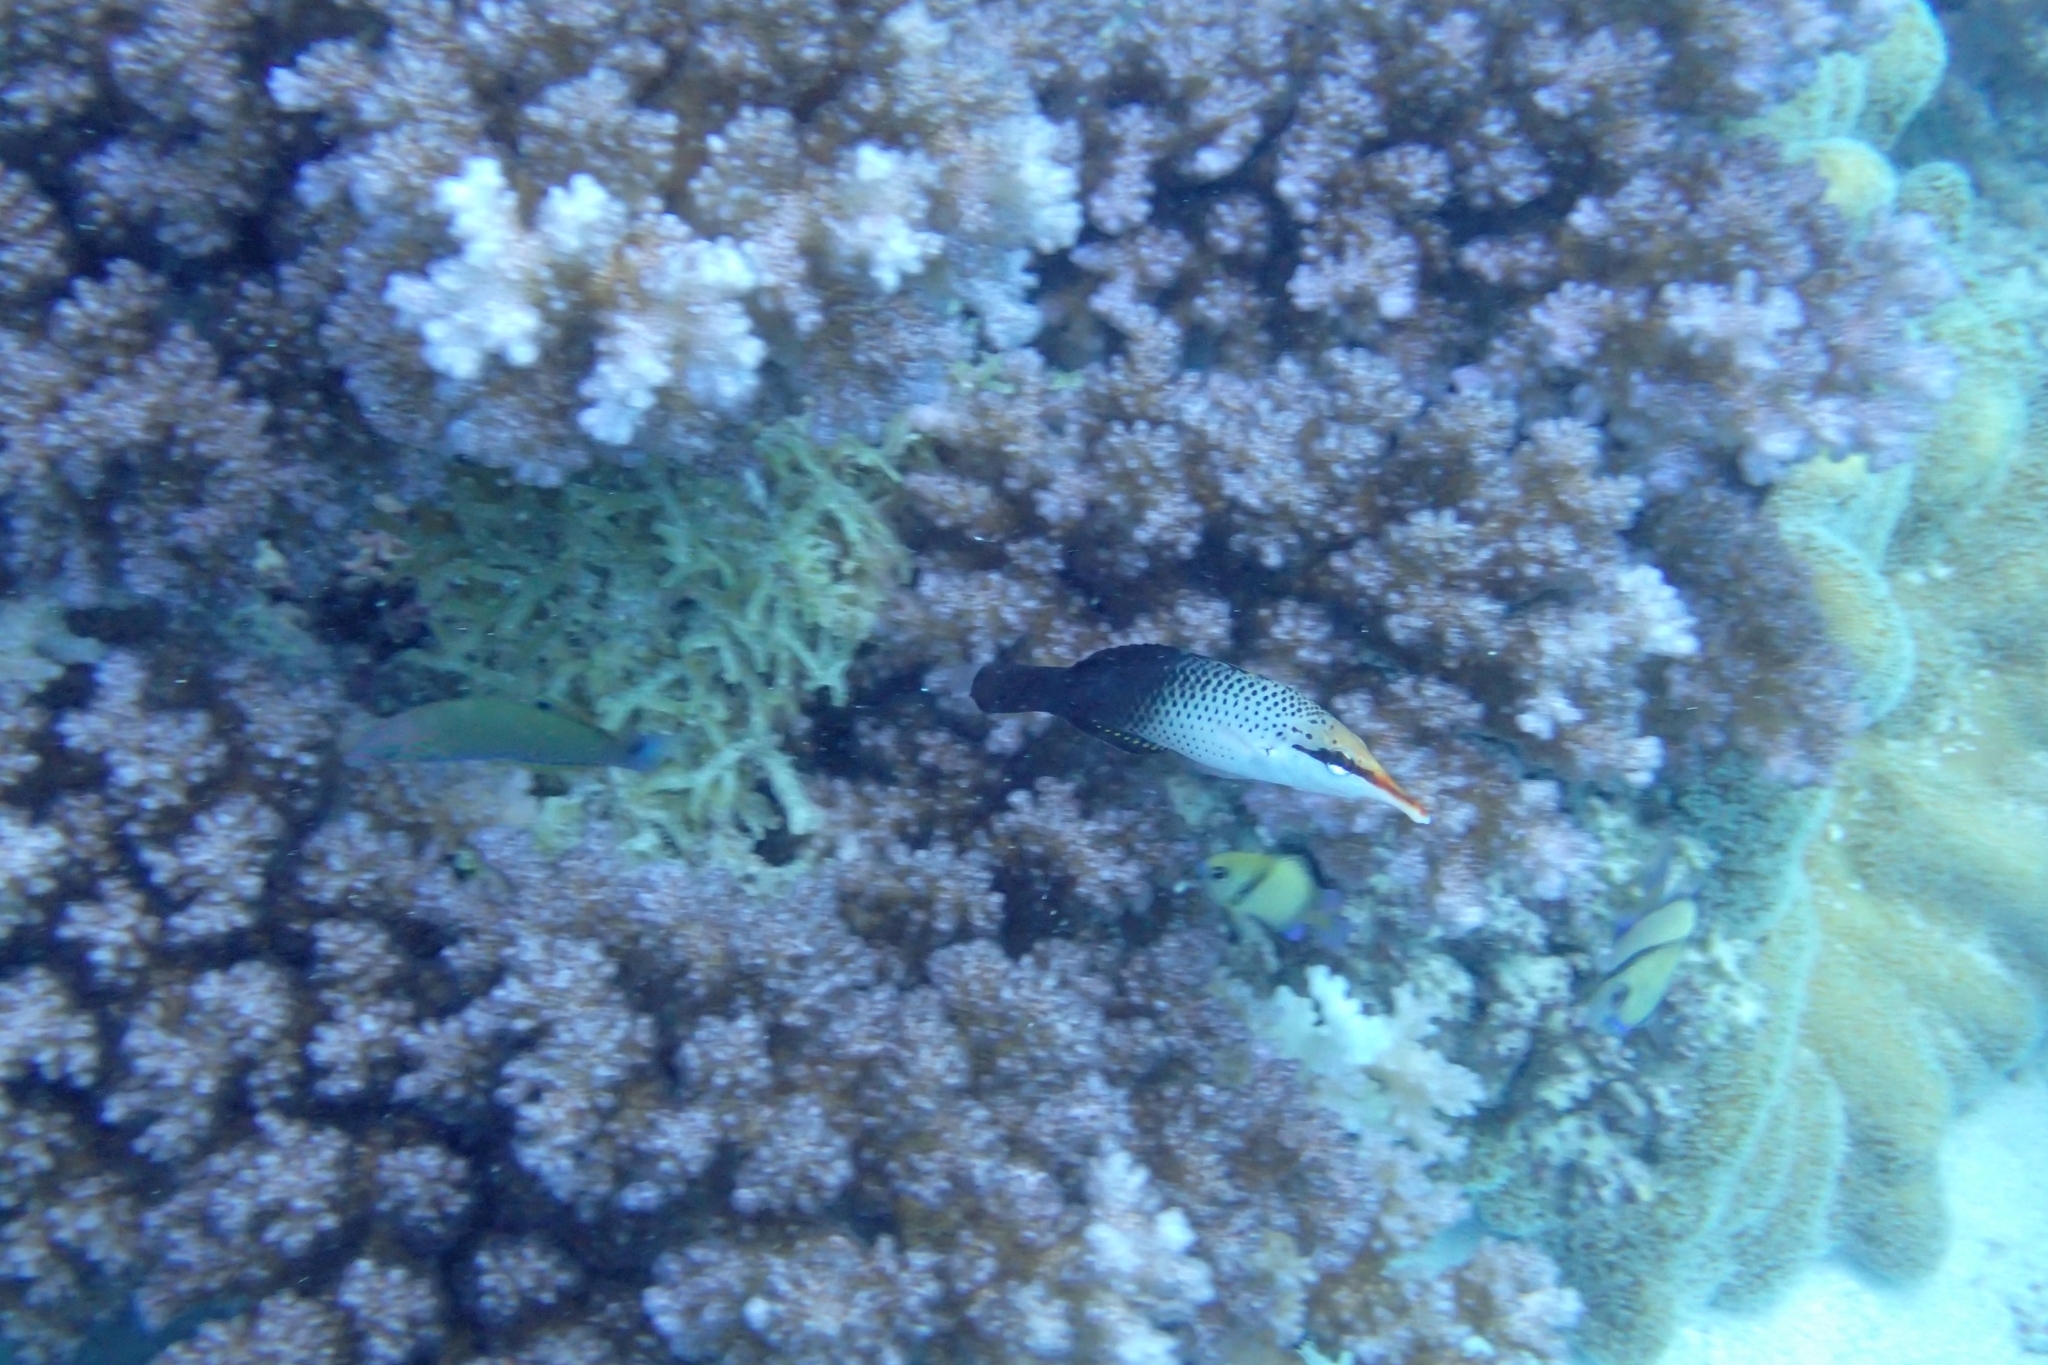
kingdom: Animalia
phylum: Chordata
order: Perciformes
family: Labridae
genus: Gomphosus
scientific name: Gomphosus varius
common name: Bird wrasse
